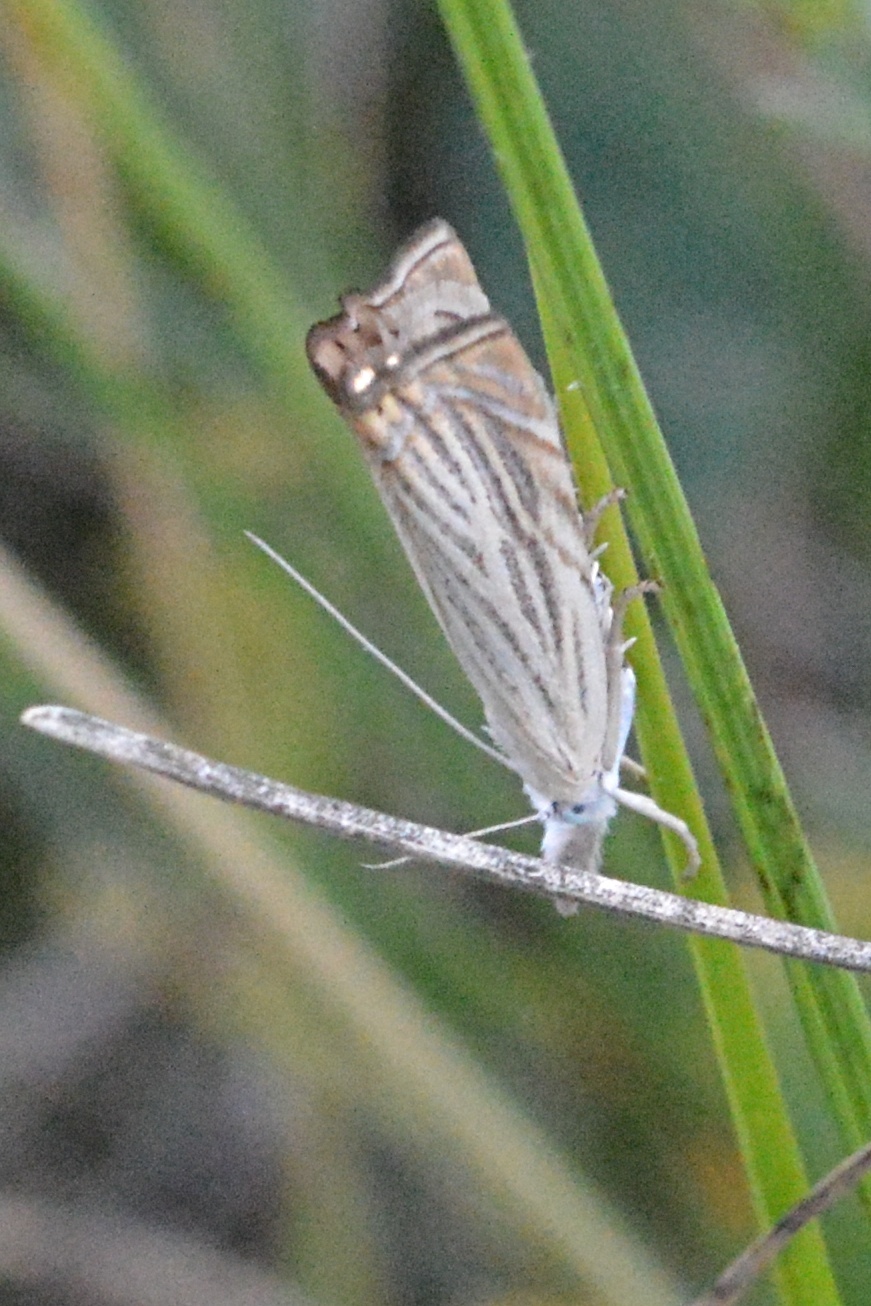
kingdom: Animalia
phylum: Arthropoda
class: Insecta
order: Lepidoptera
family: Crambidae
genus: Chrysoteuchia
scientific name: Chrysoteuchia culmella
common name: Garden grass-veneer
